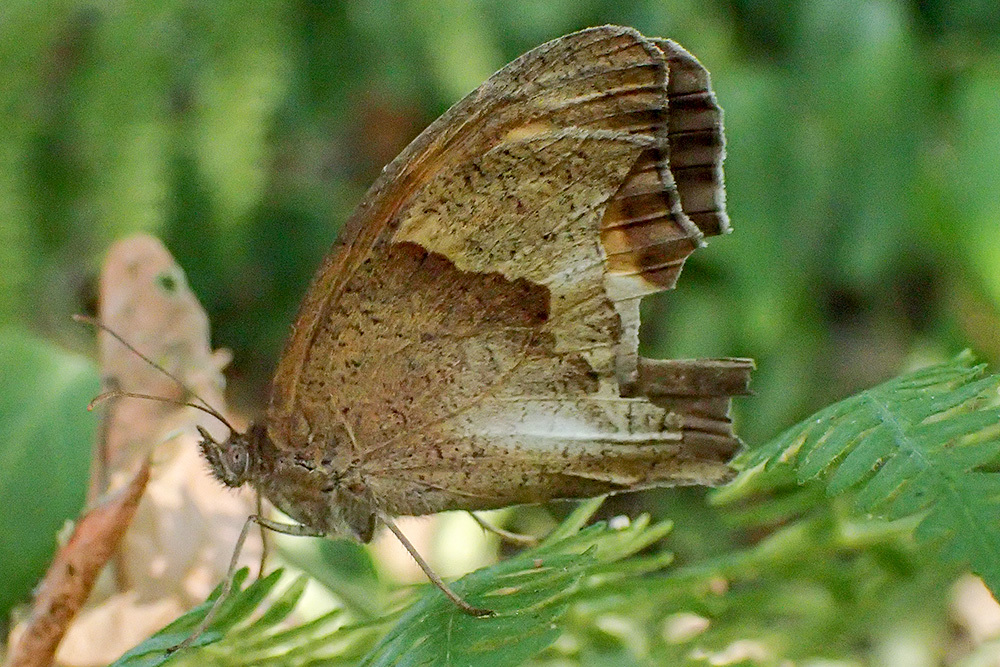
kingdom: Animalia
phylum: Arthropoda
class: Insecta
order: Lepidoptera
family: Nymphalidae
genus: Maniola
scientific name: Maniola jurtina
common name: Meadow brown
